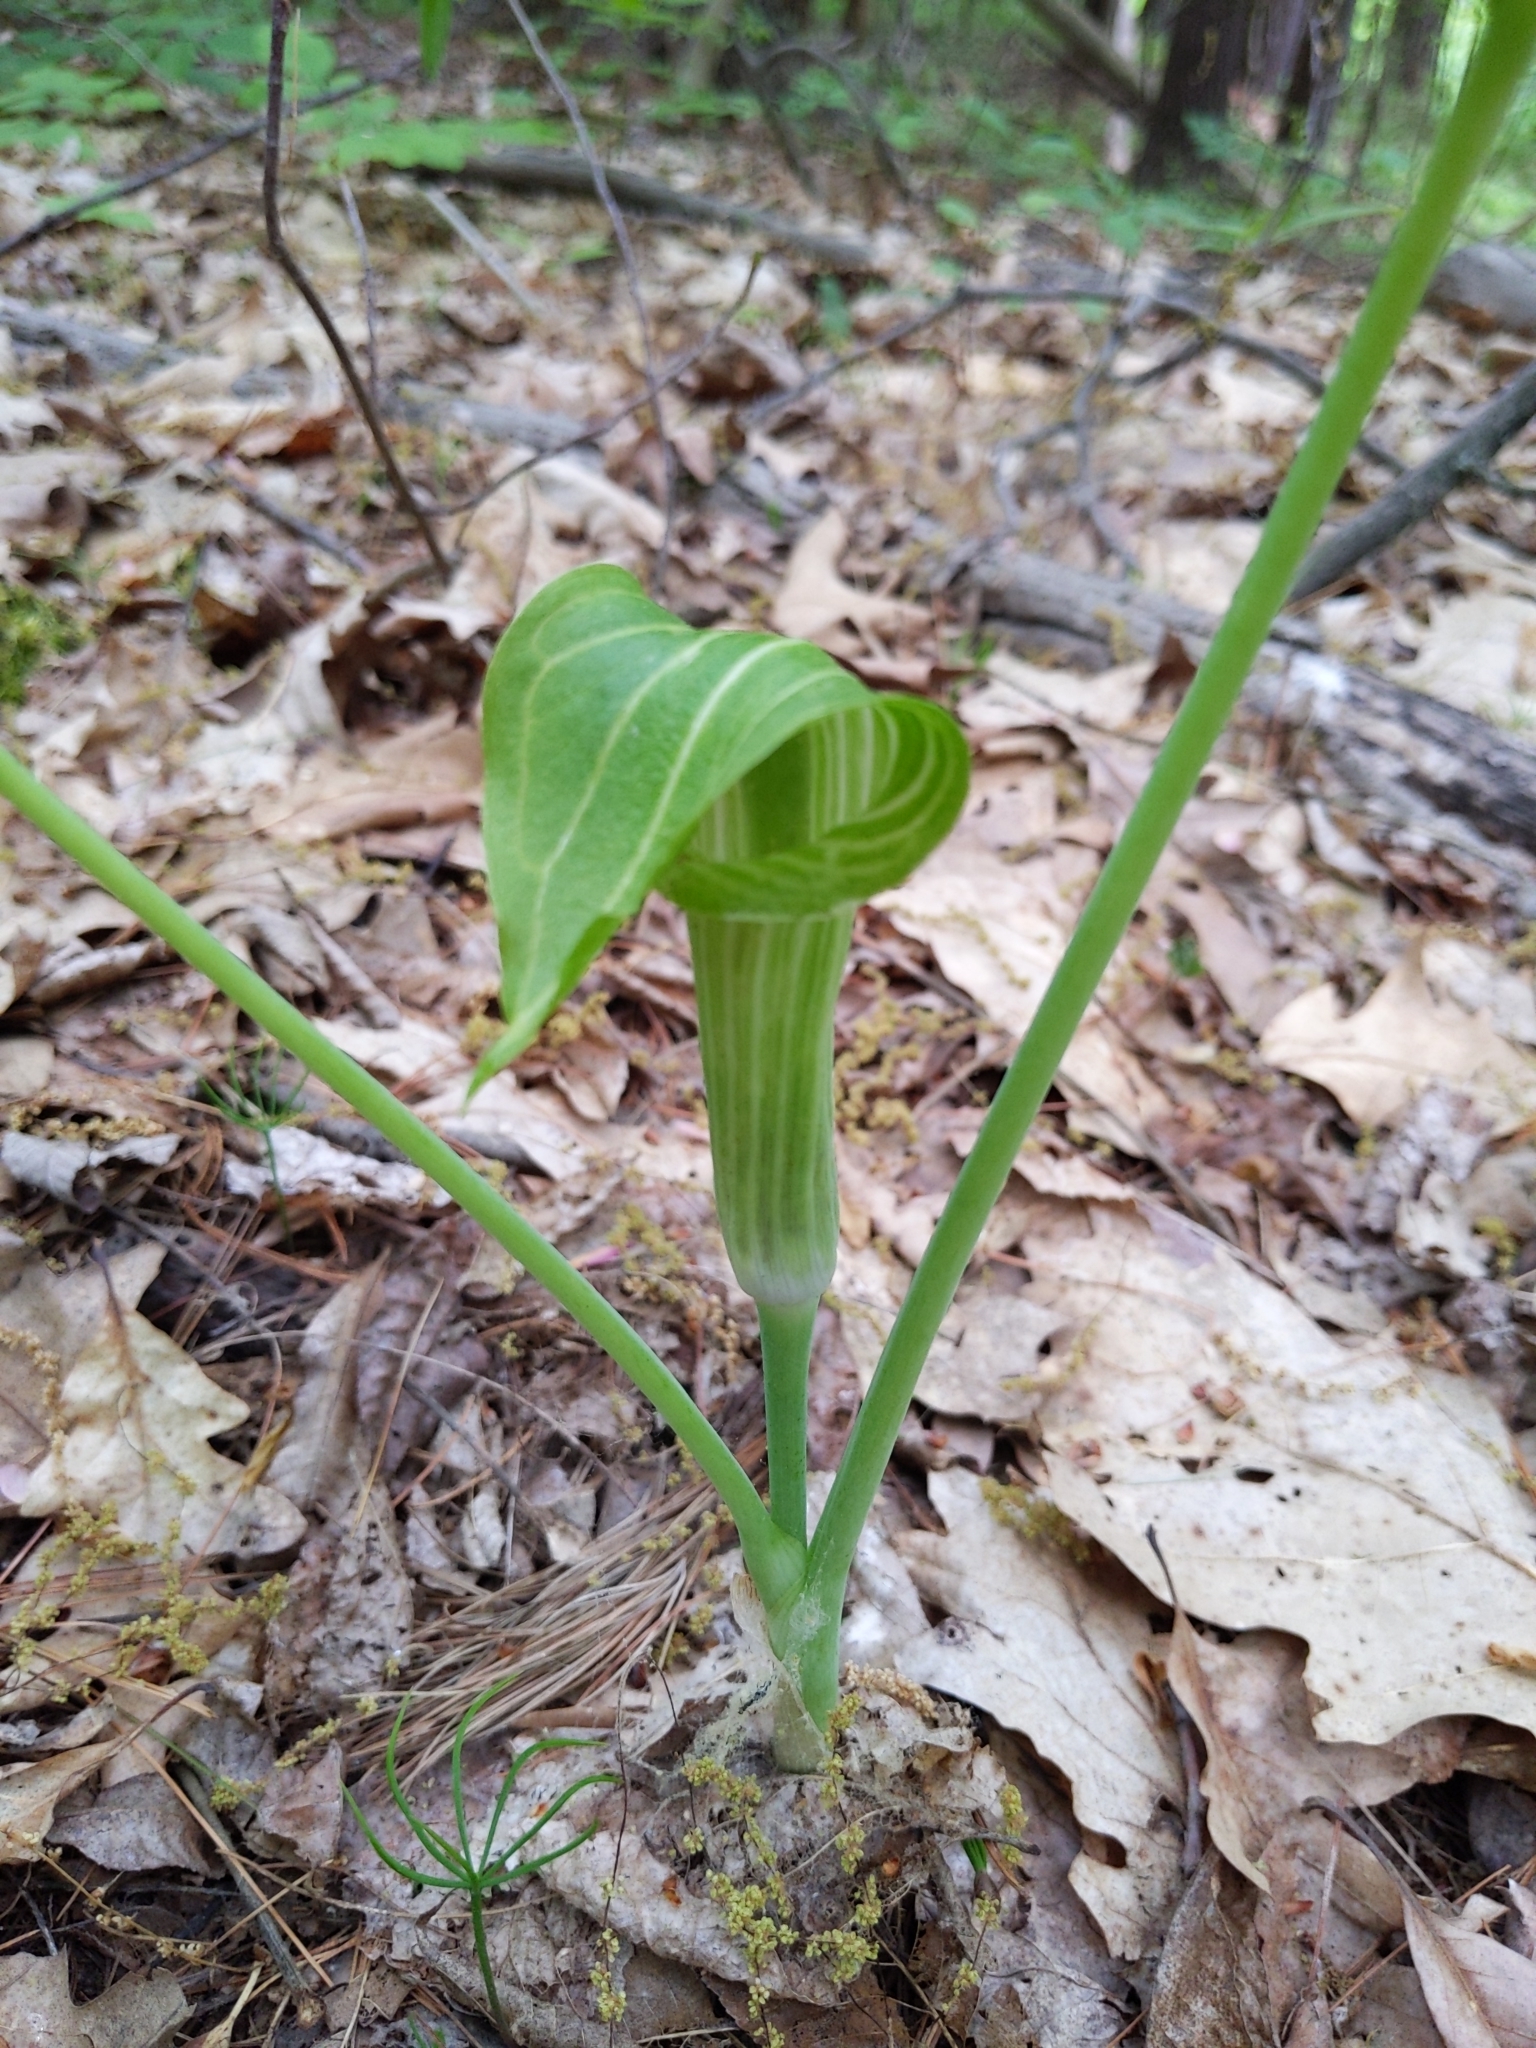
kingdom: Plantae
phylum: Tracheophyta
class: Liliopsida
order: Alismatales
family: Araceae
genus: Arisaema
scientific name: Arisaema triphyllum
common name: Jack-in-the-pulpit
